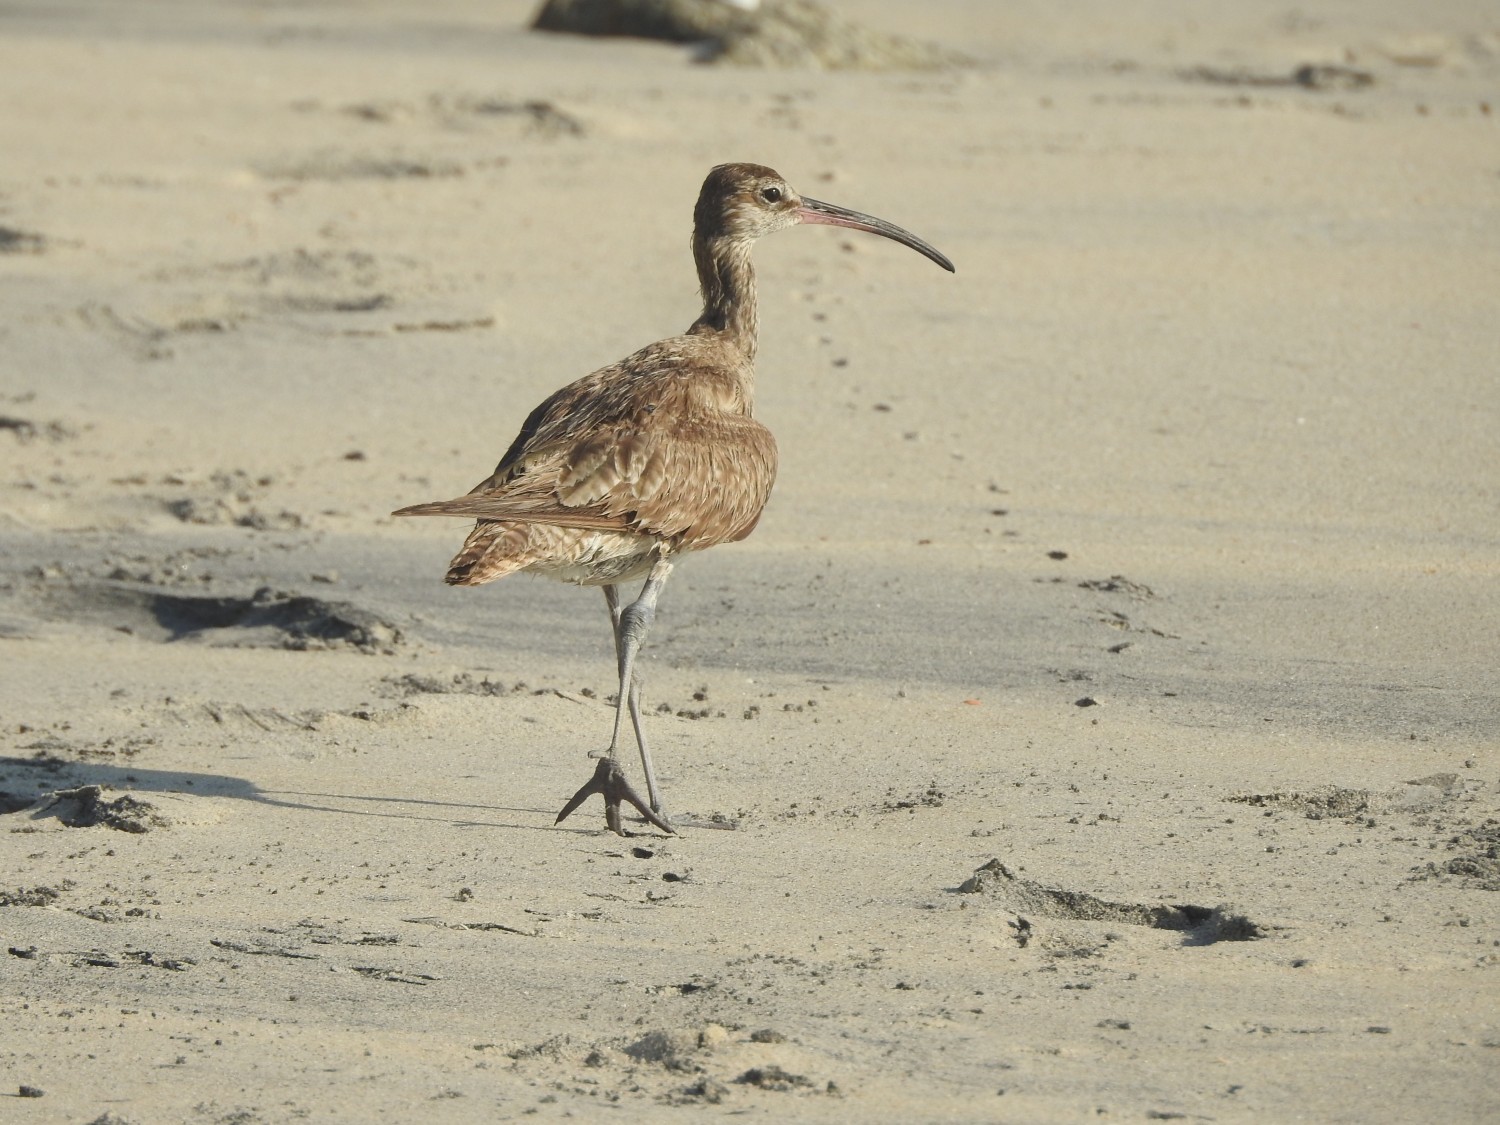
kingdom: Animalia
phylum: Chordata
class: Aves
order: Charadriiformes
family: Scolopacidae
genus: Numenius
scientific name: Numenius phaeopus
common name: Whimbrel
